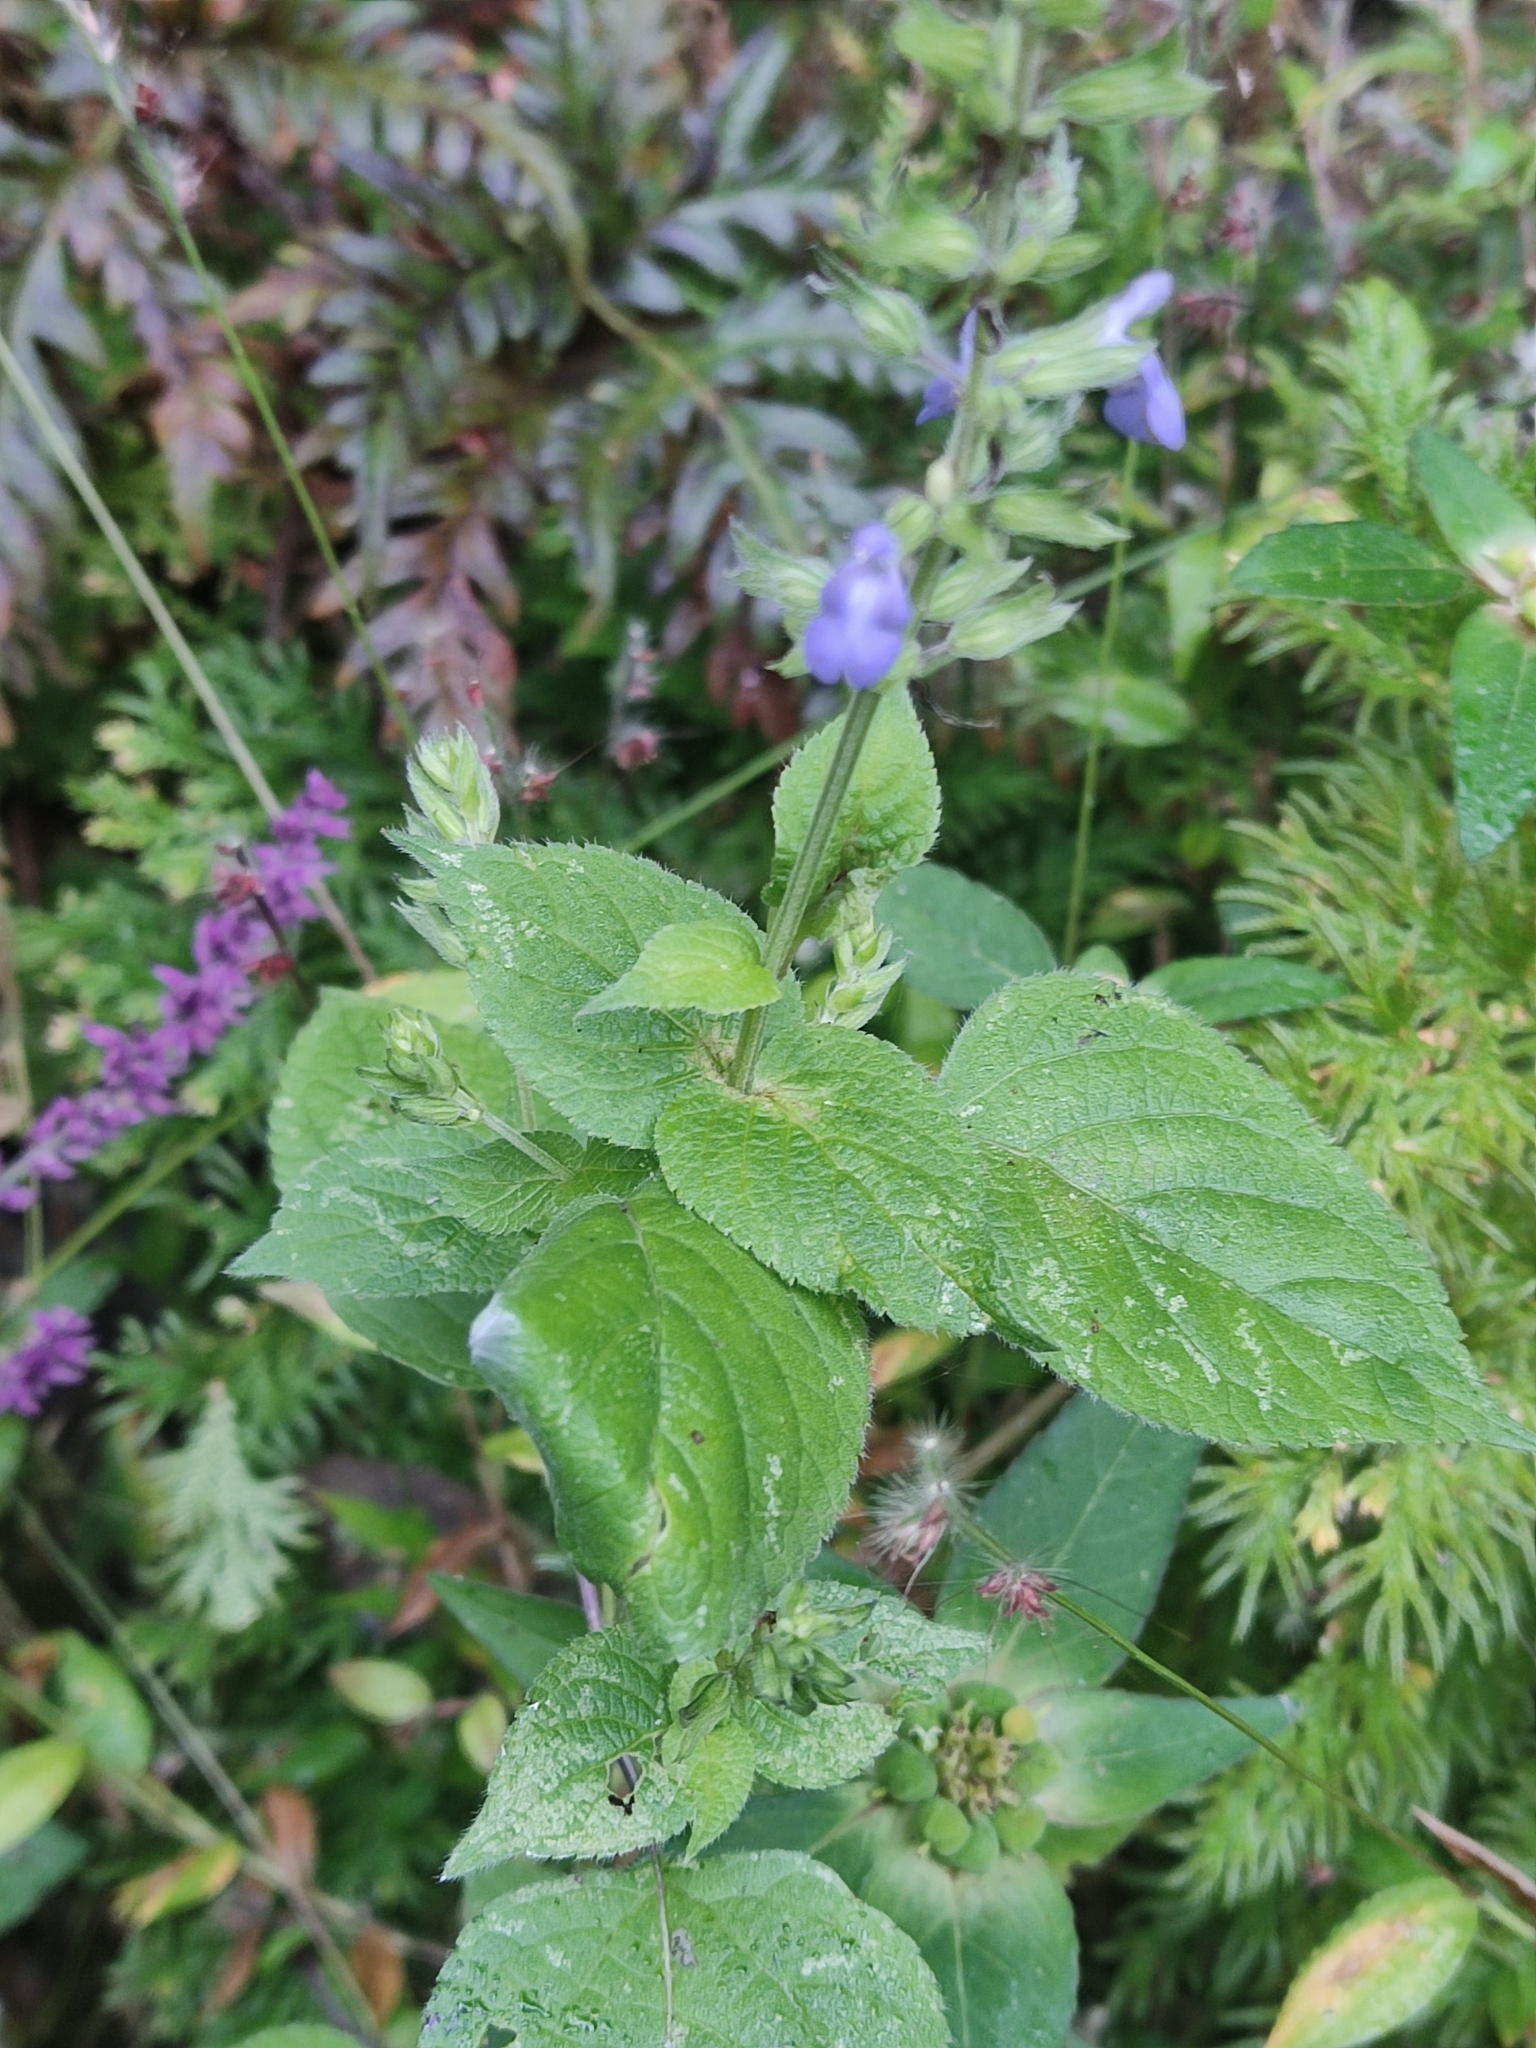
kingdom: Plantae
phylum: Tracheophyta
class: Magnoliopsida
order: Lamiales
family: Lamiaceae
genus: Salvia
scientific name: Salvia tiliifolia
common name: Lindenleaf sage
